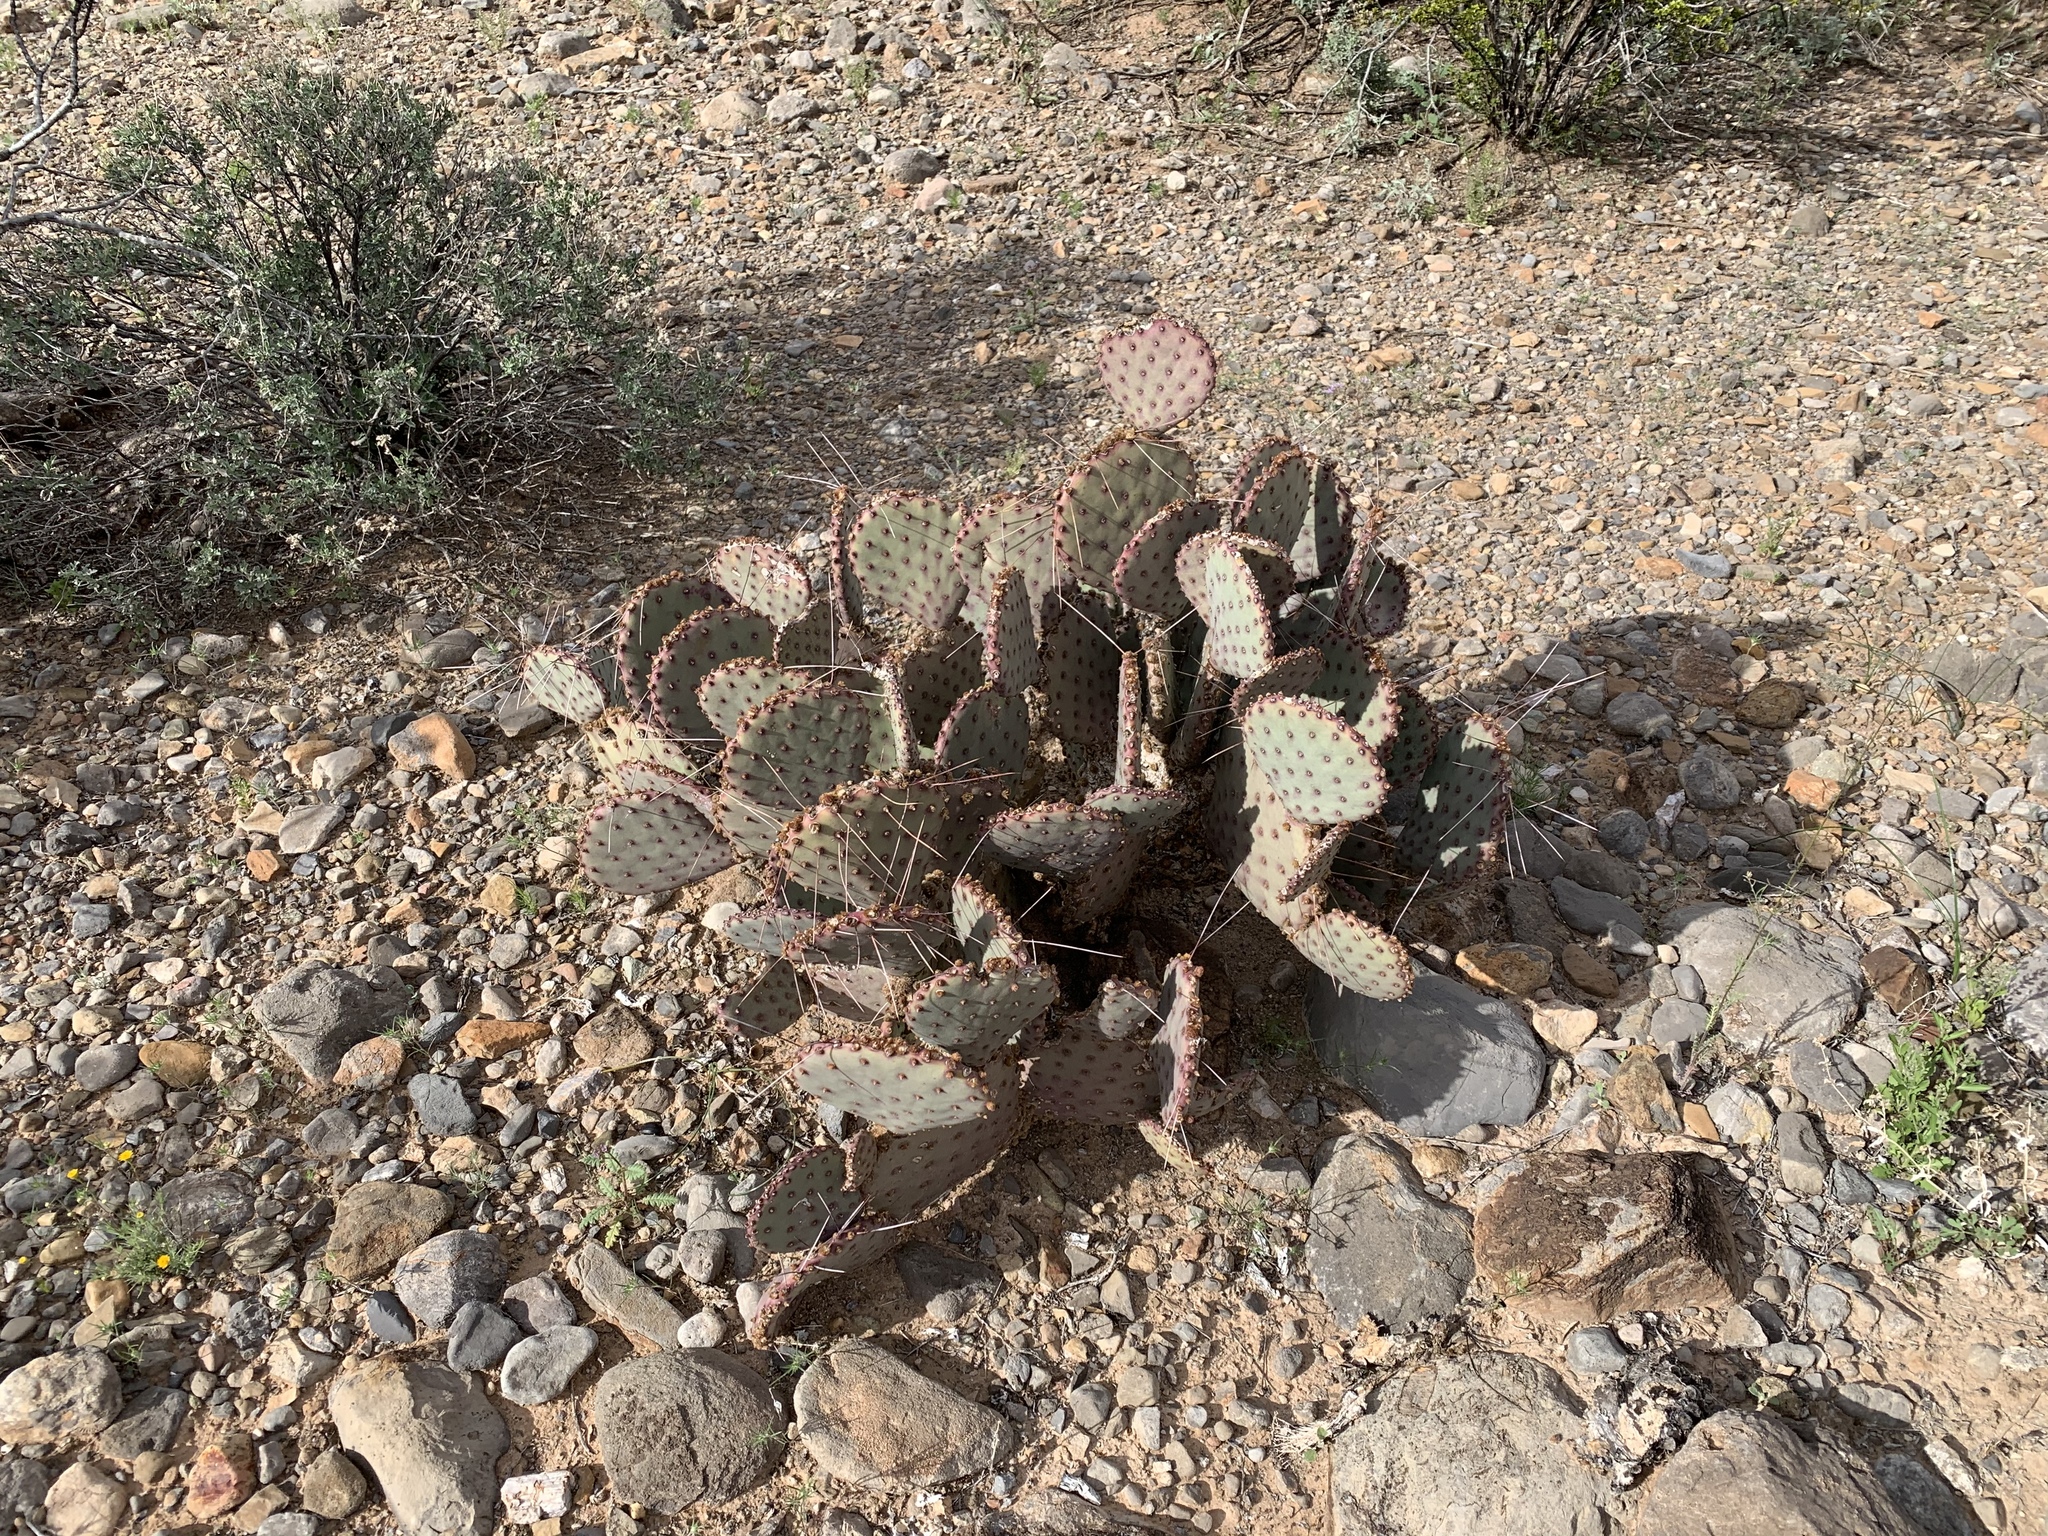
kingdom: Plantae
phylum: Tracheophyta
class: Magnoliopsida
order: Caryophyllales
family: Cactaceae
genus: Opuntia
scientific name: Opuntia macrocentra
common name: Purple prickly-pear
